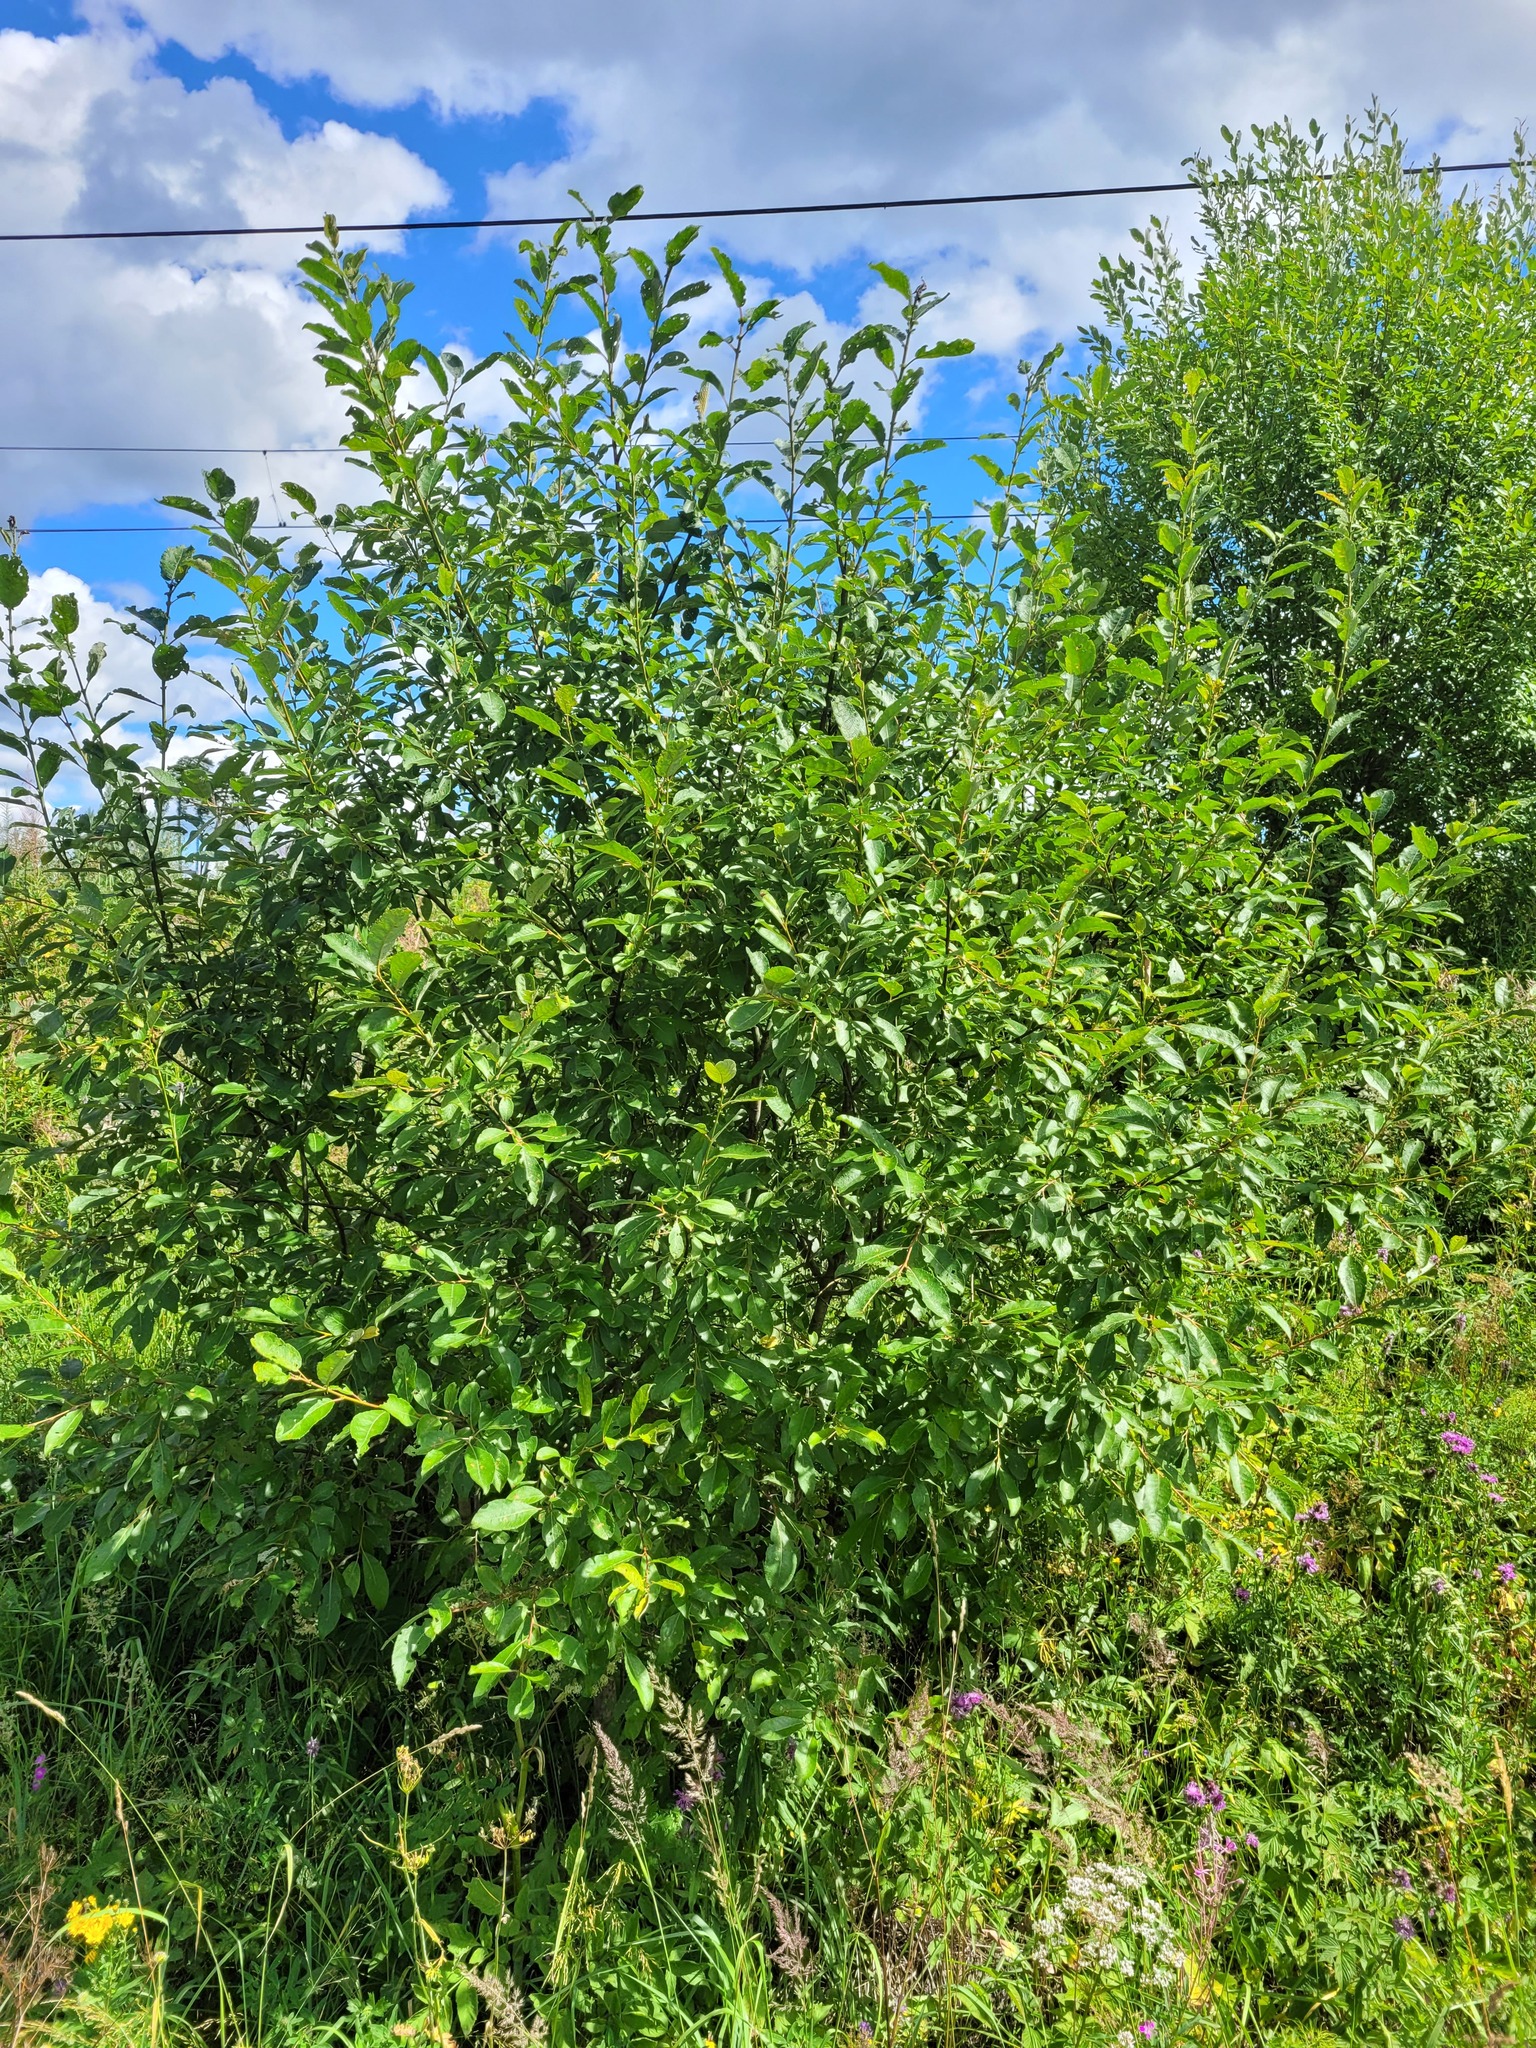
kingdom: Plantae
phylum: Tracheophyta
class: Magnoliopsida
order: Malpighiales
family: Salicaceae
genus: Salix
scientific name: Salix caprea
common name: Goat willow
